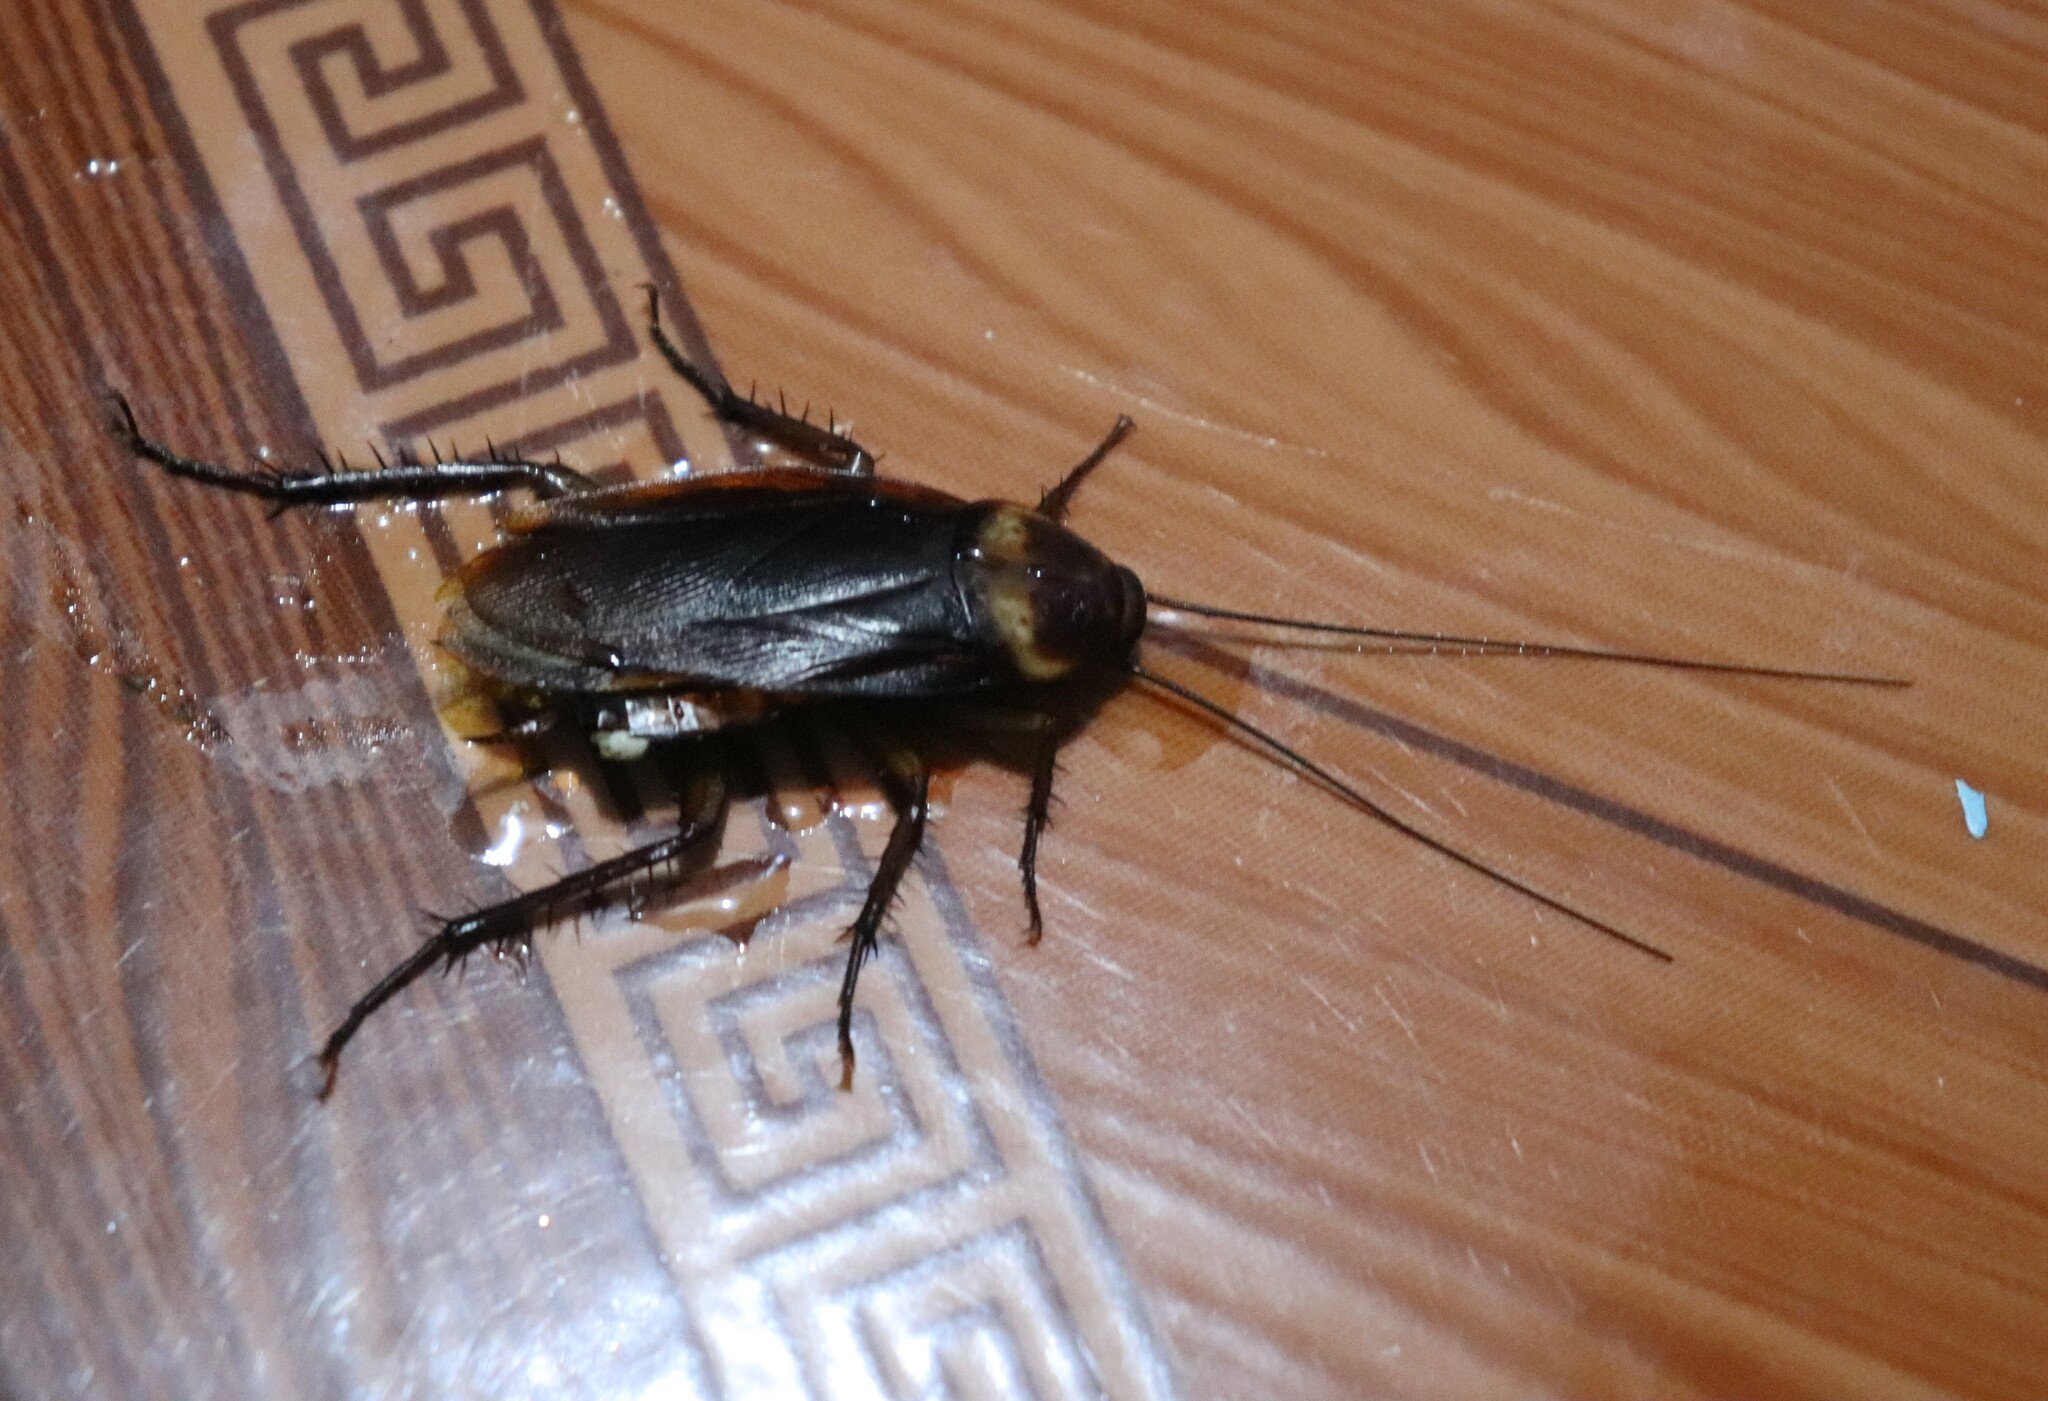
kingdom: Animalia
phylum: Arthropoda
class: Insecta
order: Blattodea
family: Blattidae
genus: Periplaneta
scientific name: Periplaneta americana
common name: American cockroach
